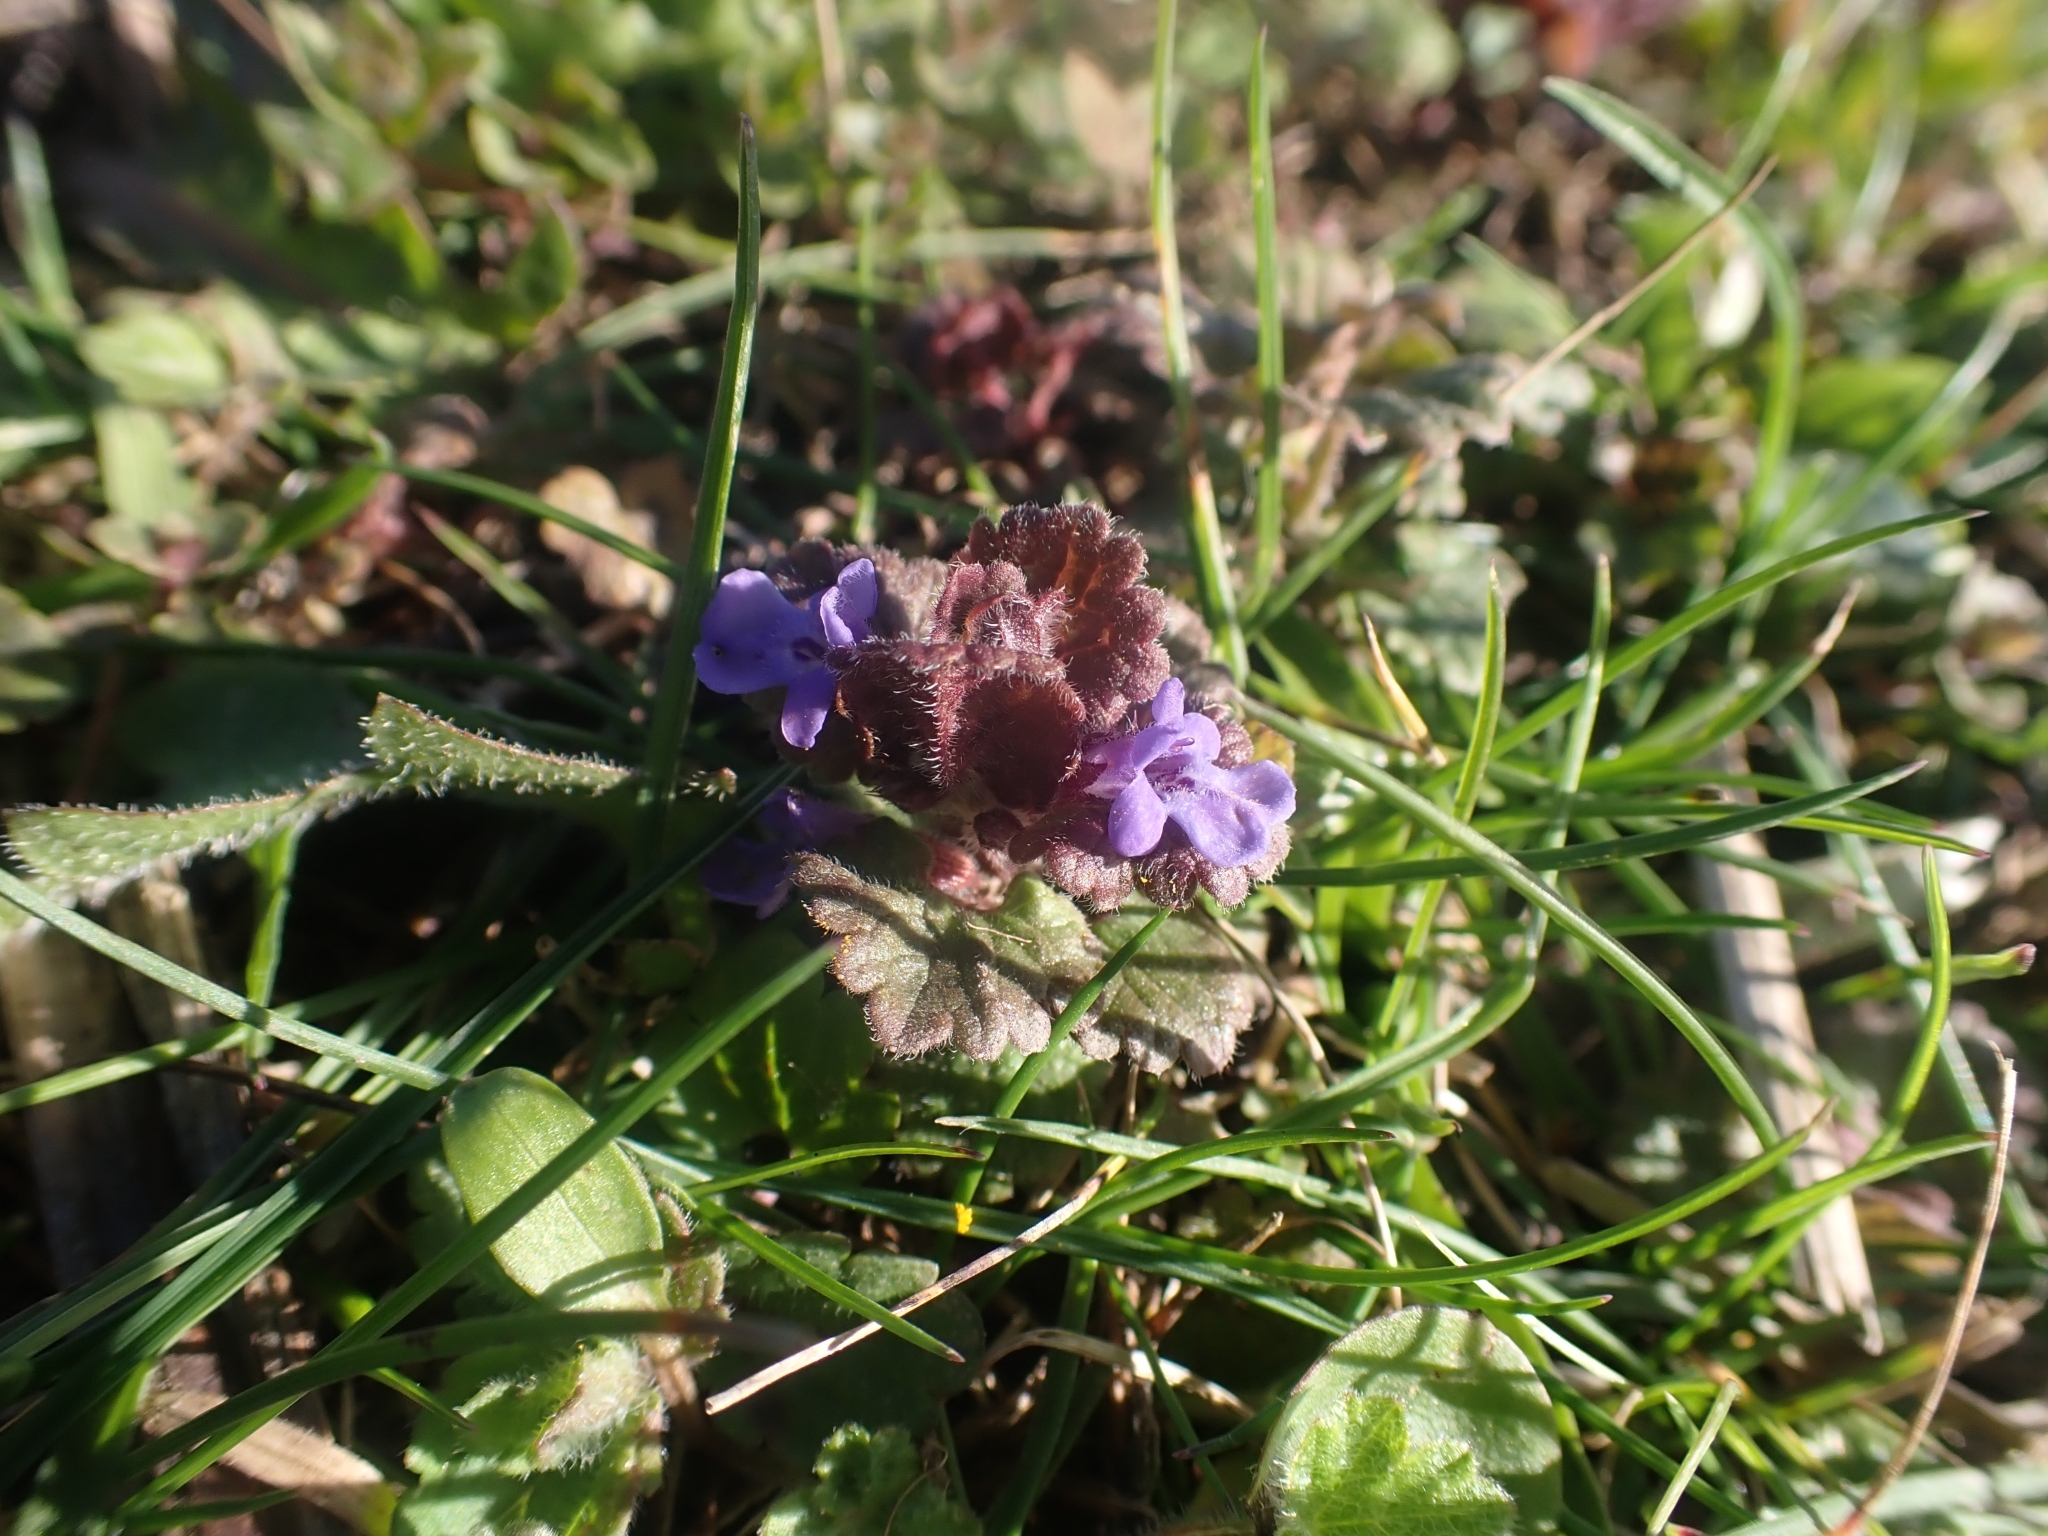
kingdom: Plantae
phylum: Tracheophyta
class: Magnoliopsida
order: Lamiales
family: Lamiaceae
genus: Glechoma
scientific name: Glechoma hederacea
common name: Ground ivy
